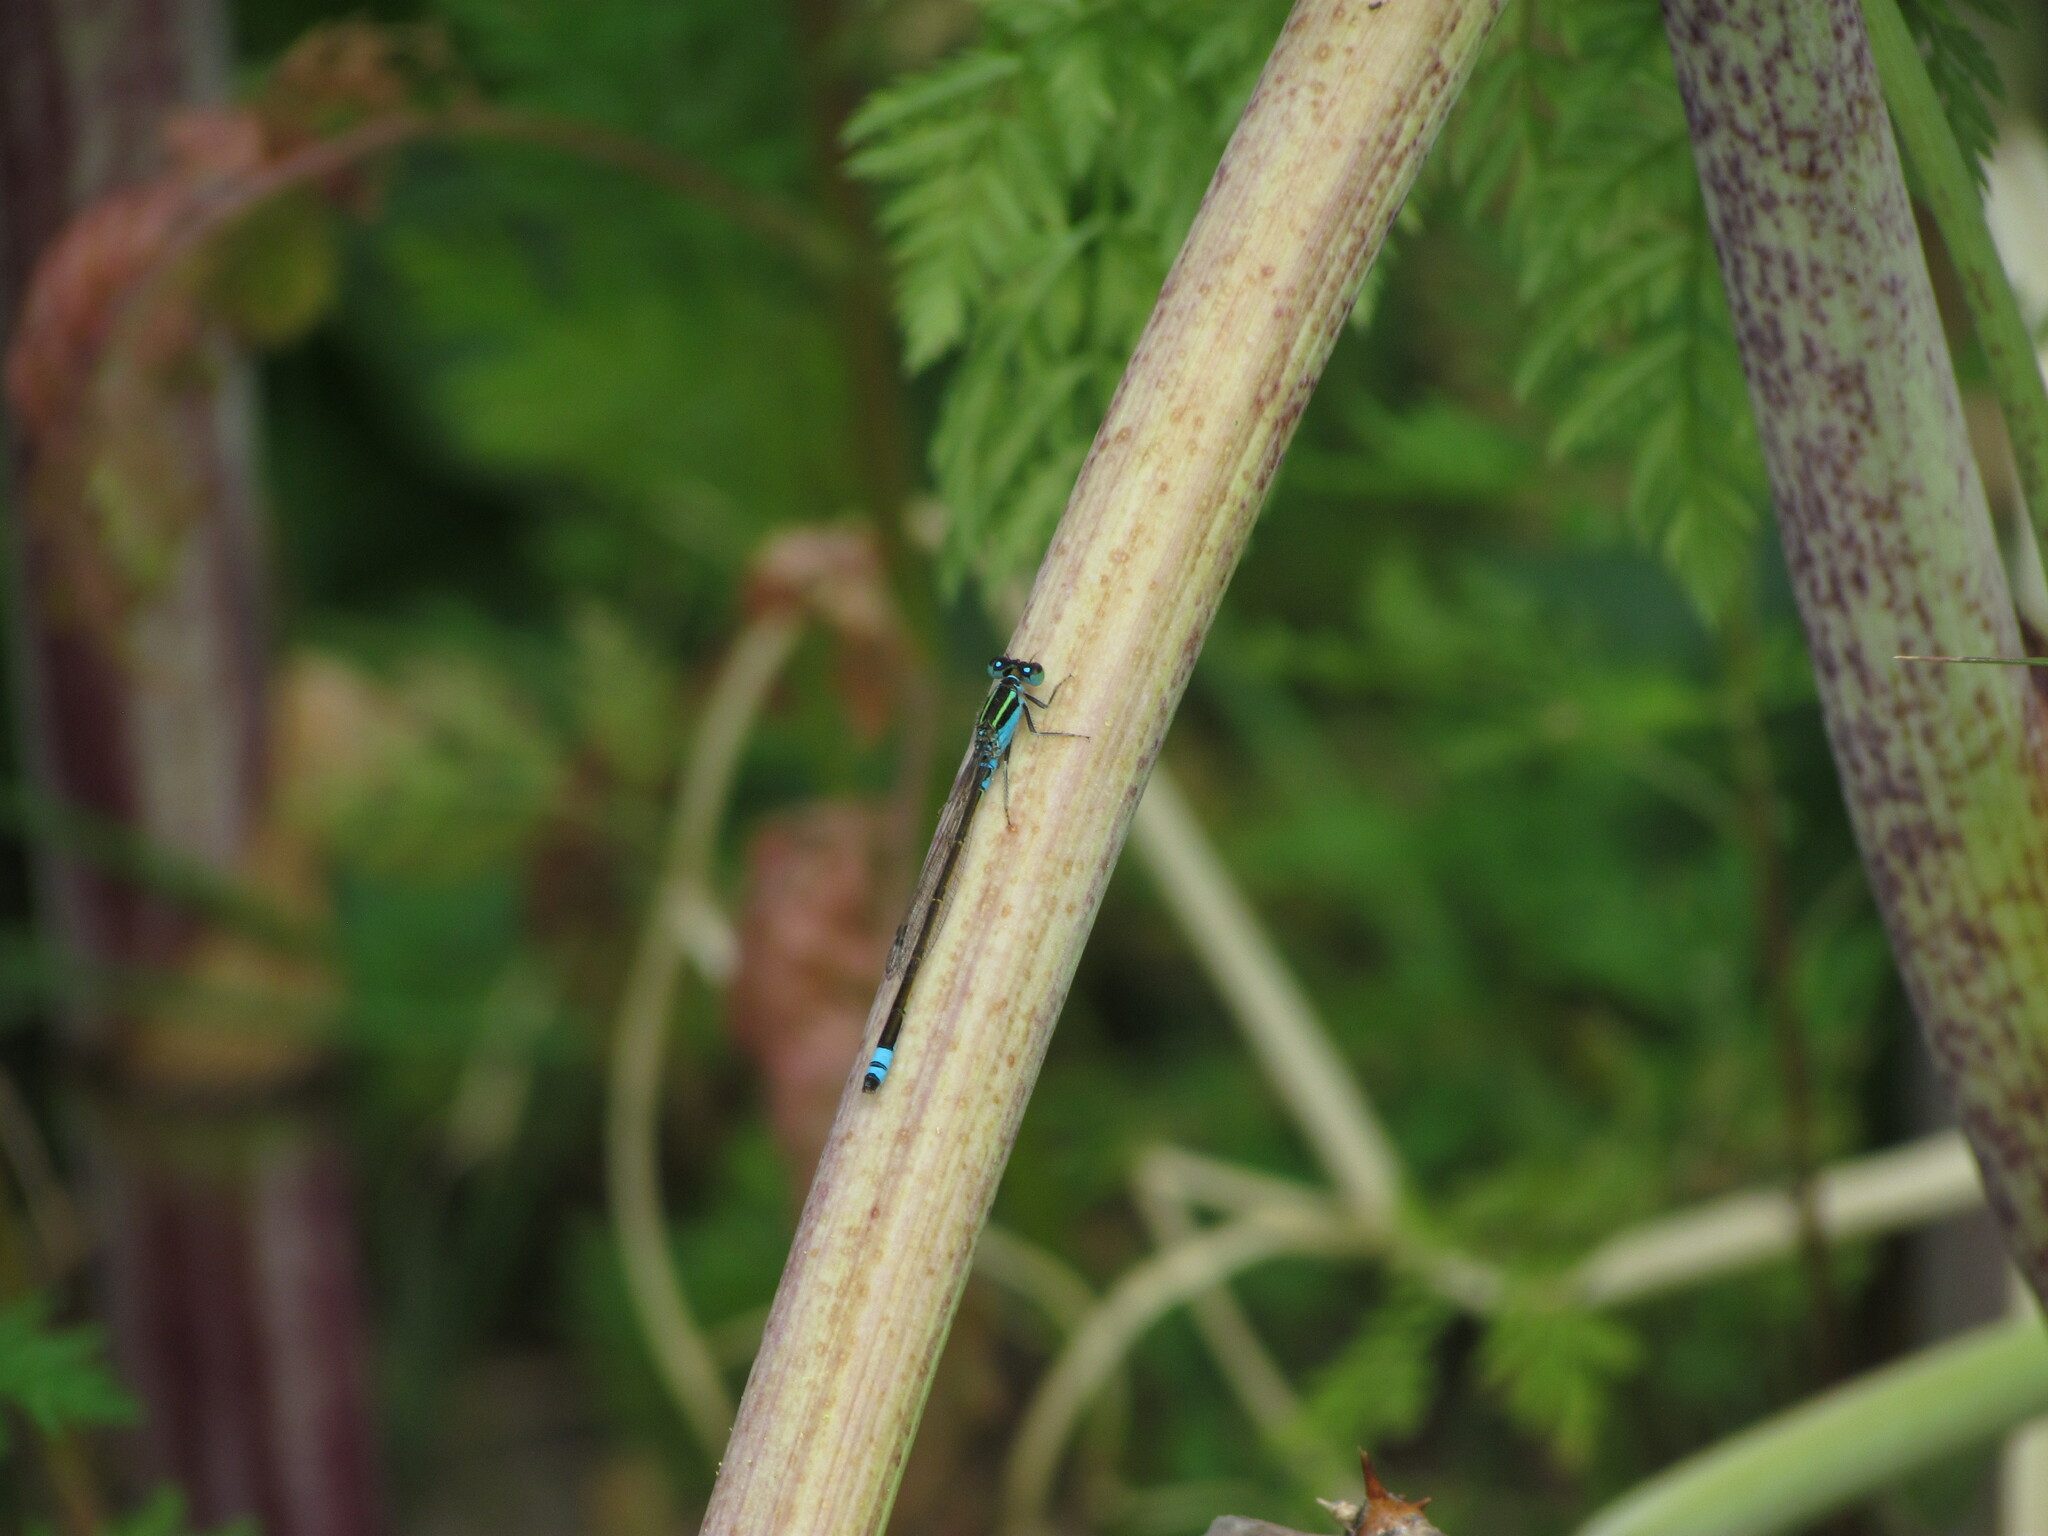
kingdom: Animalia
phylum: Arthropoda
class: Insecta
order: Odonata
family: Coenagrionidae
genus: Ischnura
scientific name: Ischnura fluviatilis
